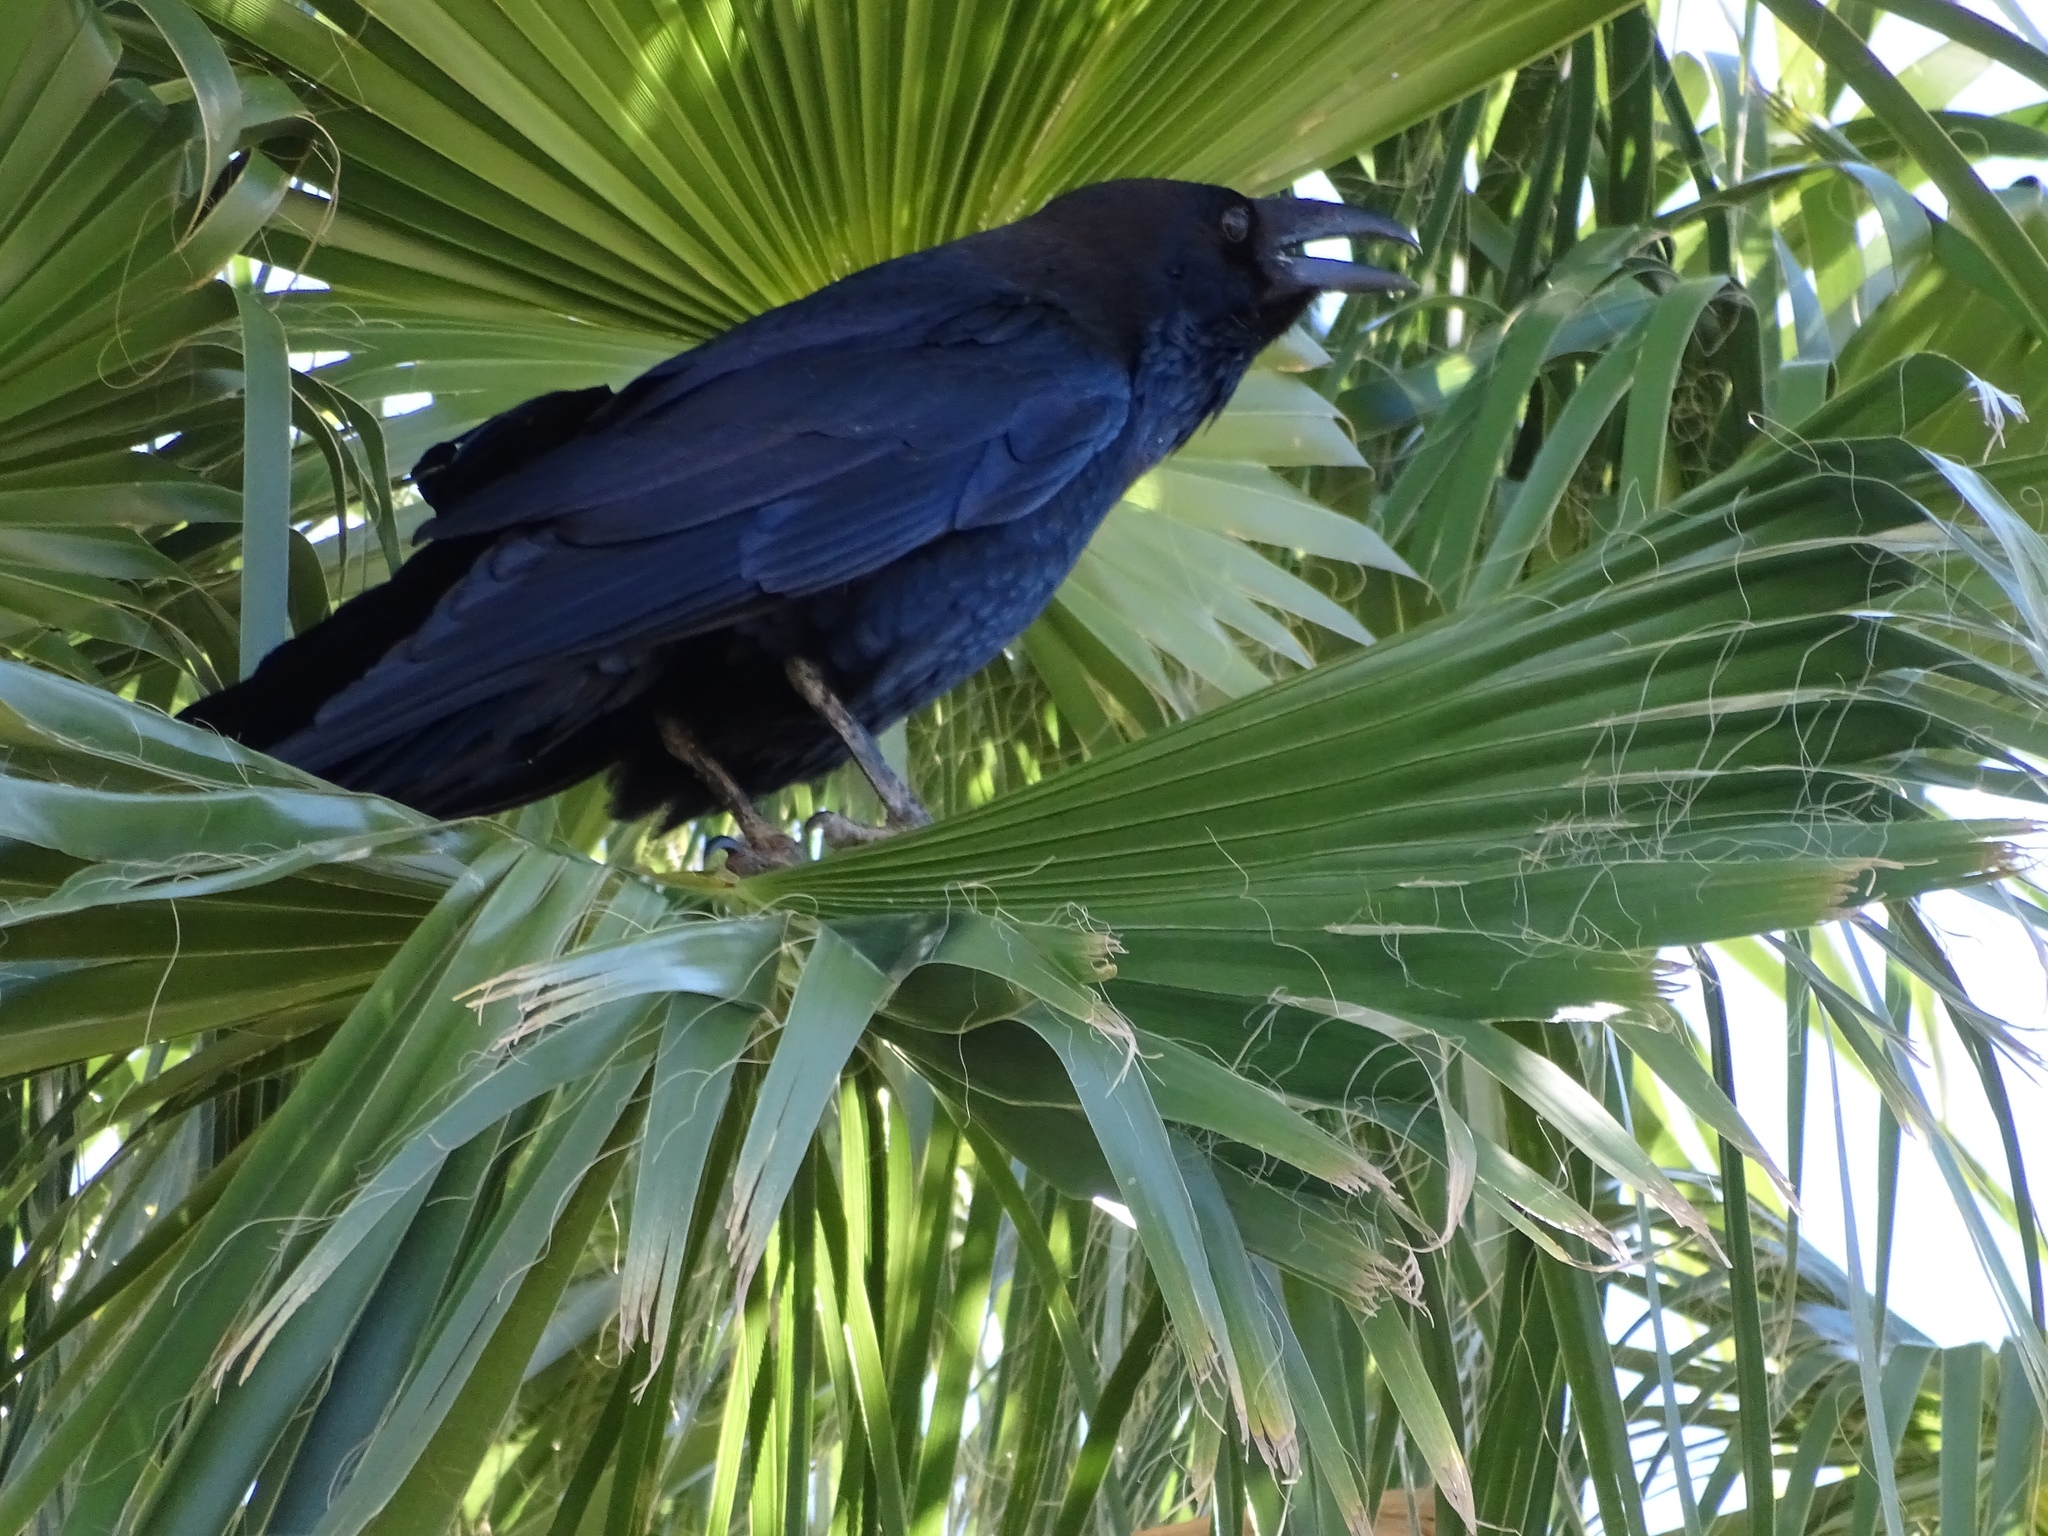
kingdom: Animalia
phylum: Chordata
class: Aves
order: Passeriformes
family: Corvidae
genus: Corvus
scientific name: Corvus corax
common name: Common raven
